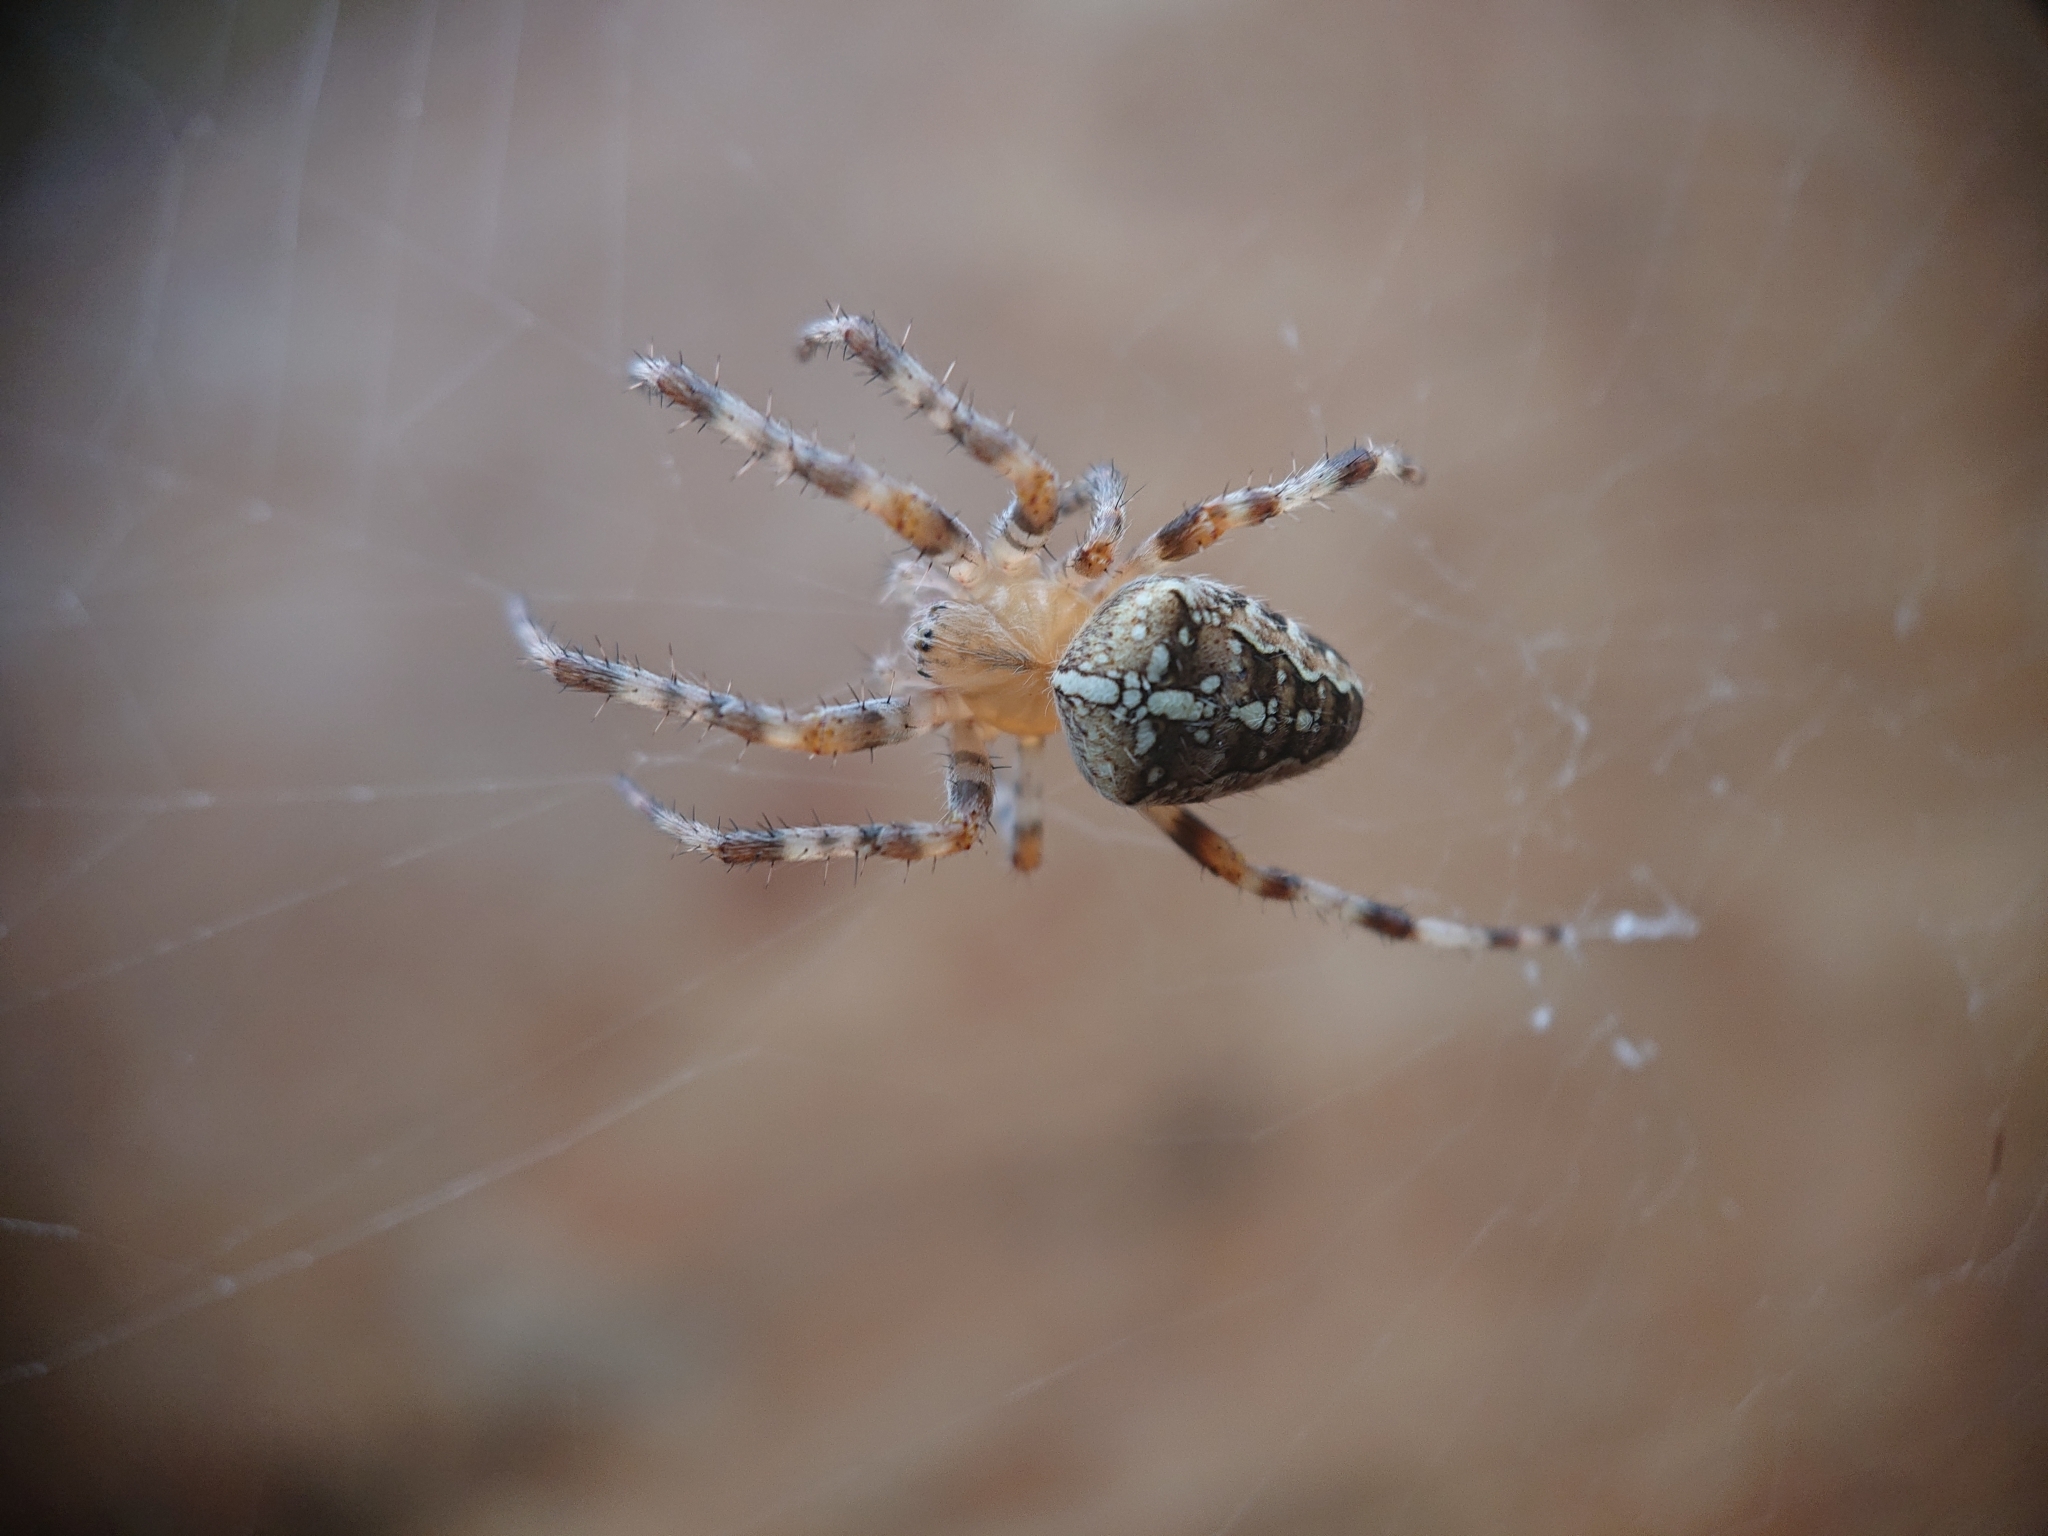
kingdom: Animalia
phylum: Arthropoda
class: Arachnida
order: Araneae
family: Araneidae
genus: Araneus
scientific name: Araneus diadematus
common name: Cross orbweaver
